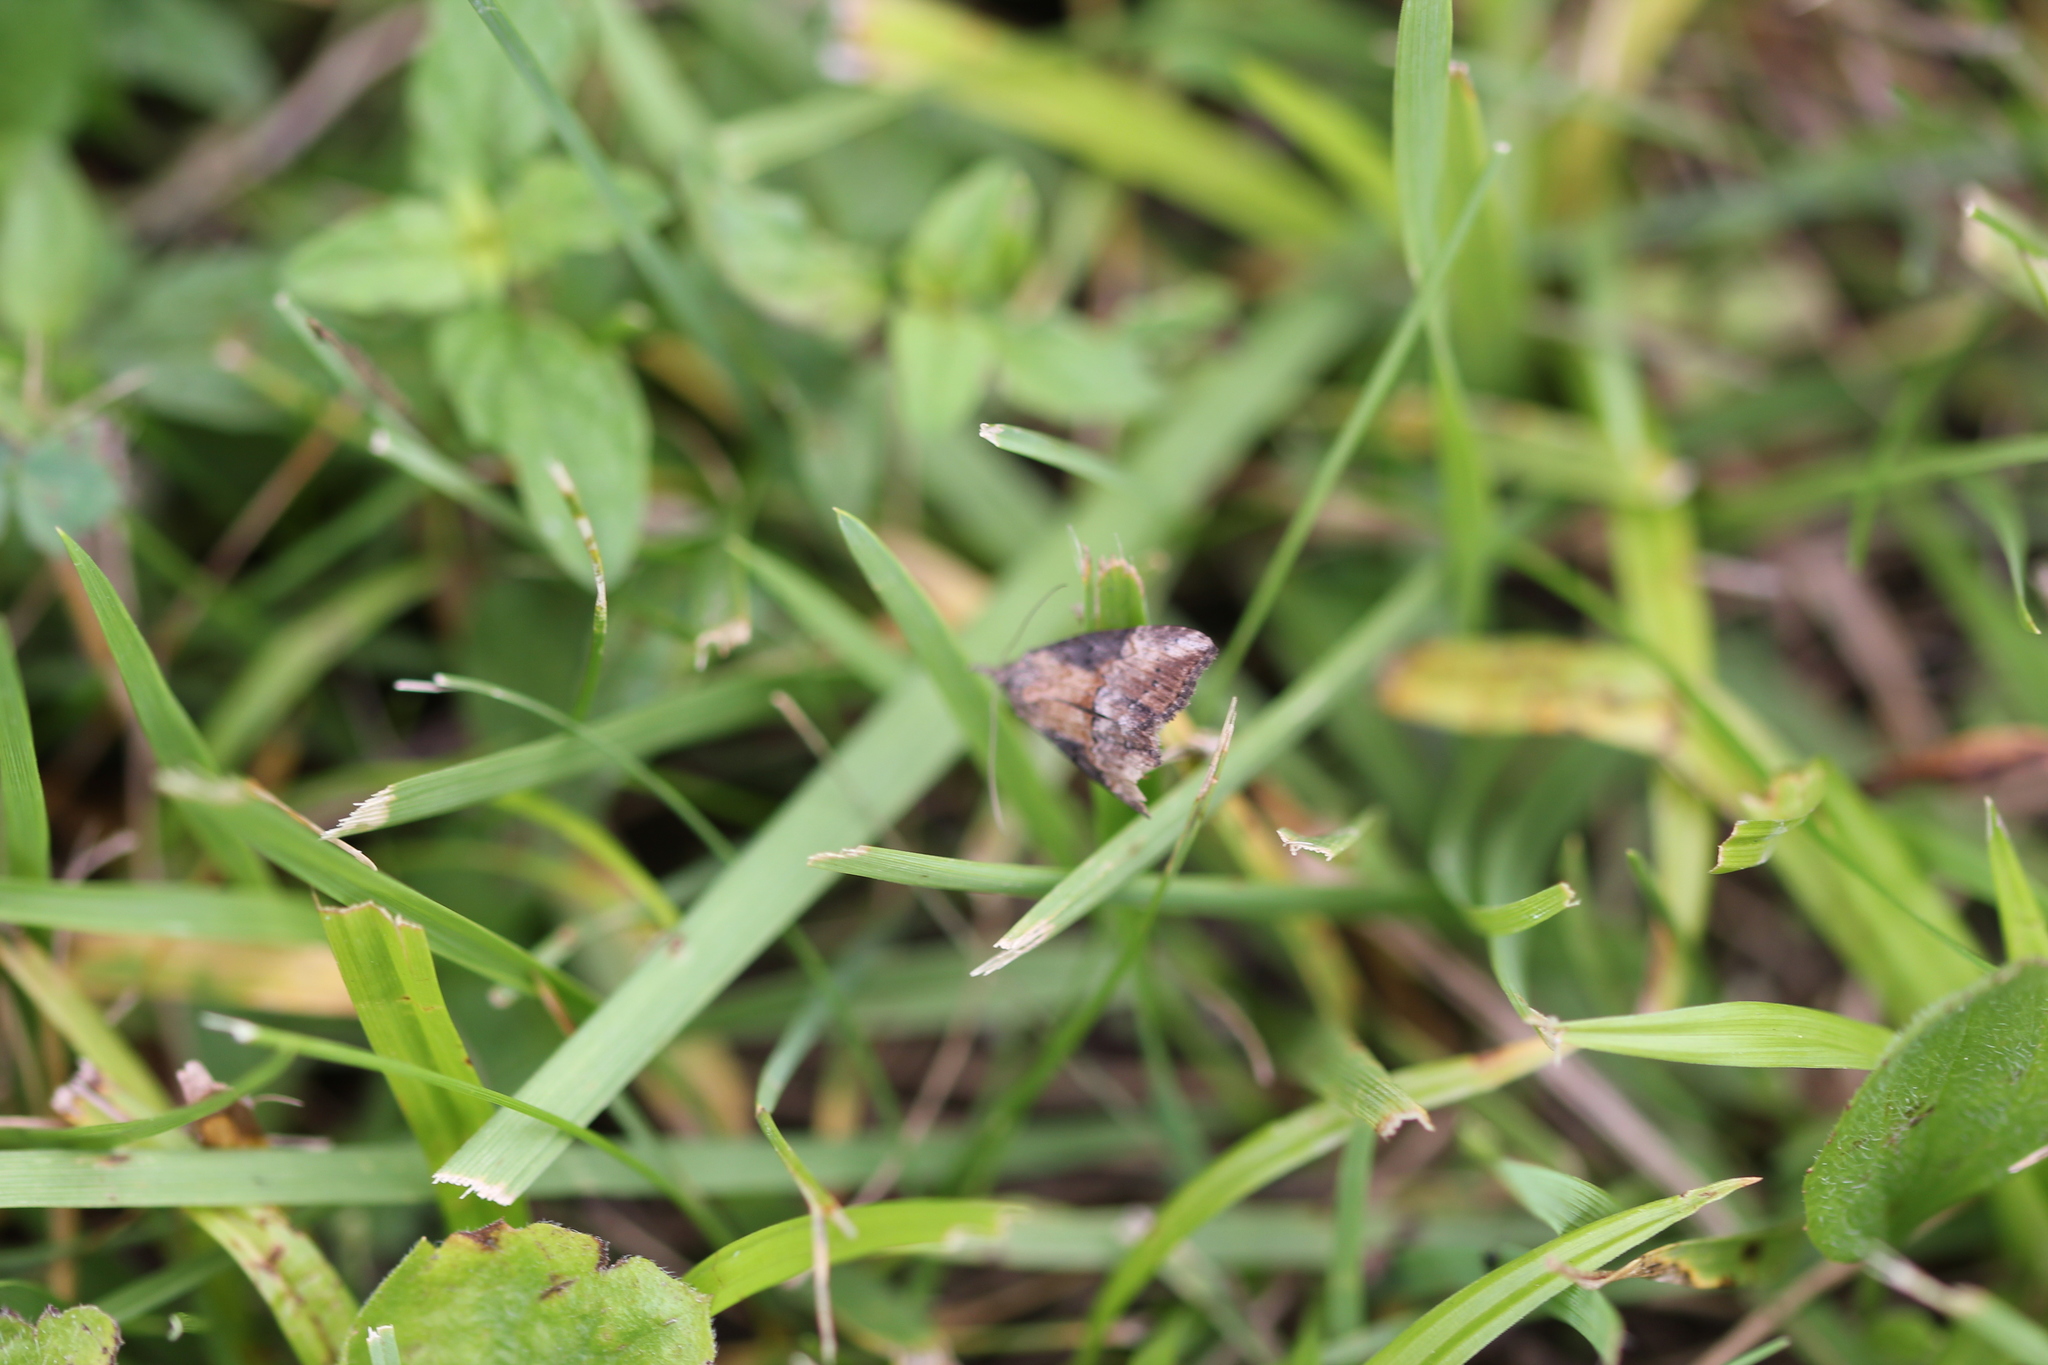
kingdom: Animalia
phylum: Arthropoda
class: Insecta
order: Lepidoptera
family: Erebidae
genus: Hypena
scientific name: Hypena scabra
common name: Green cloverworm
